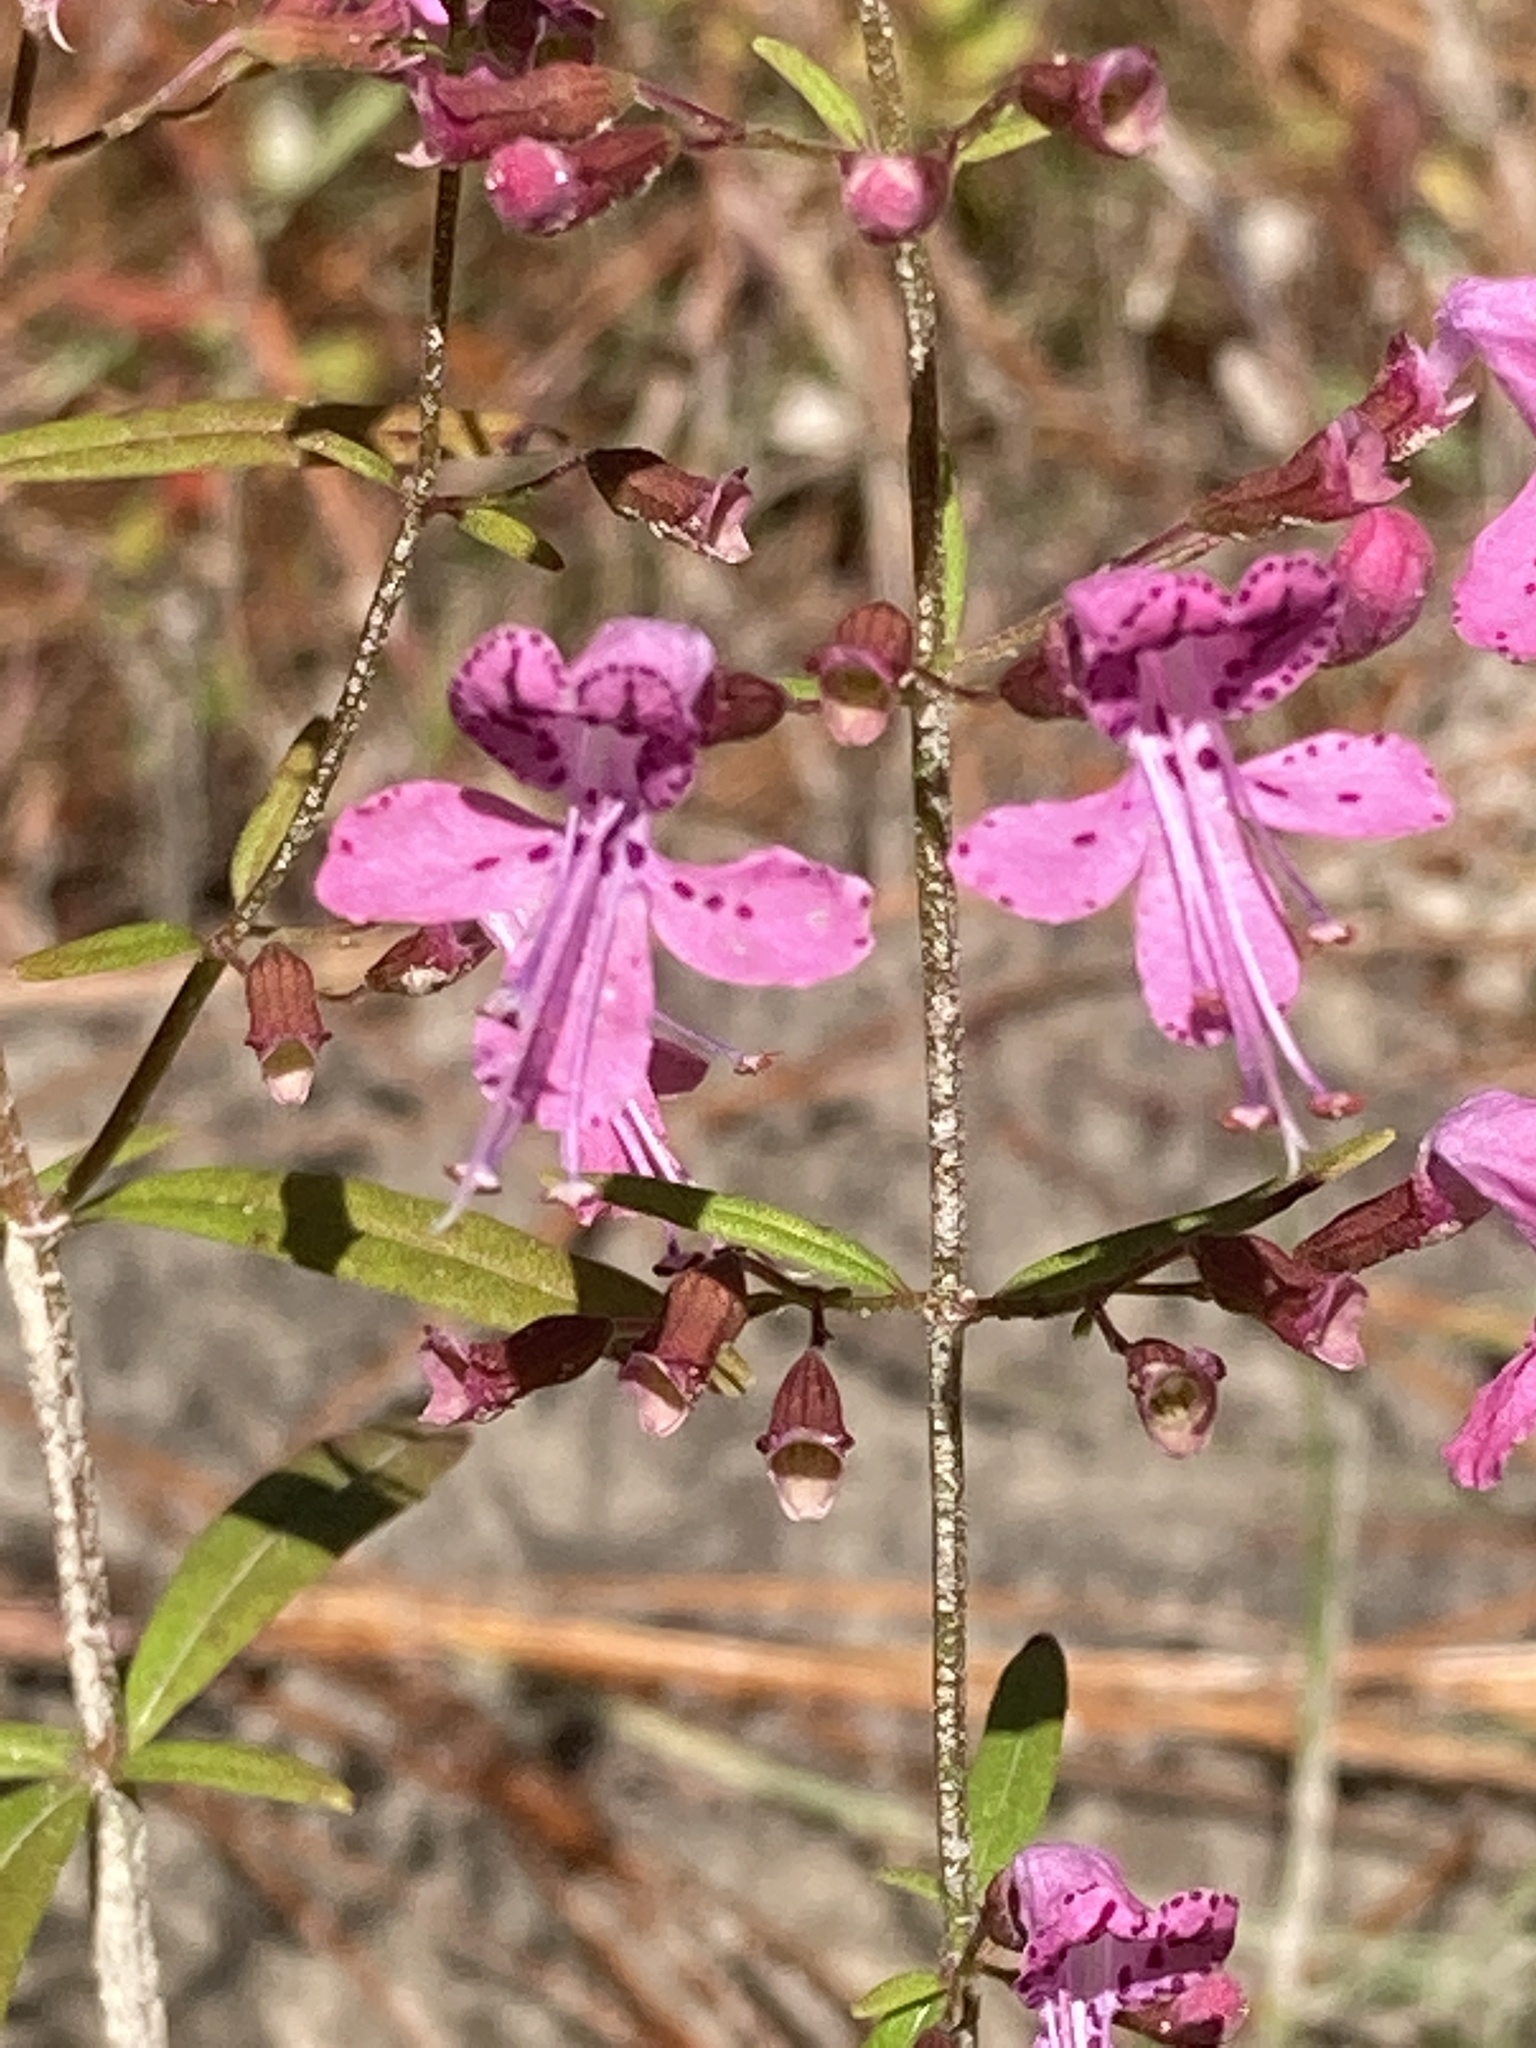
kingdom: Plantae
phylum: Tracheophyta
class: Magnoliopsida
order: Lamiales
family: Lamiaceae
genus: Dicerandra
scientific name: Dicerandra linearifolia
